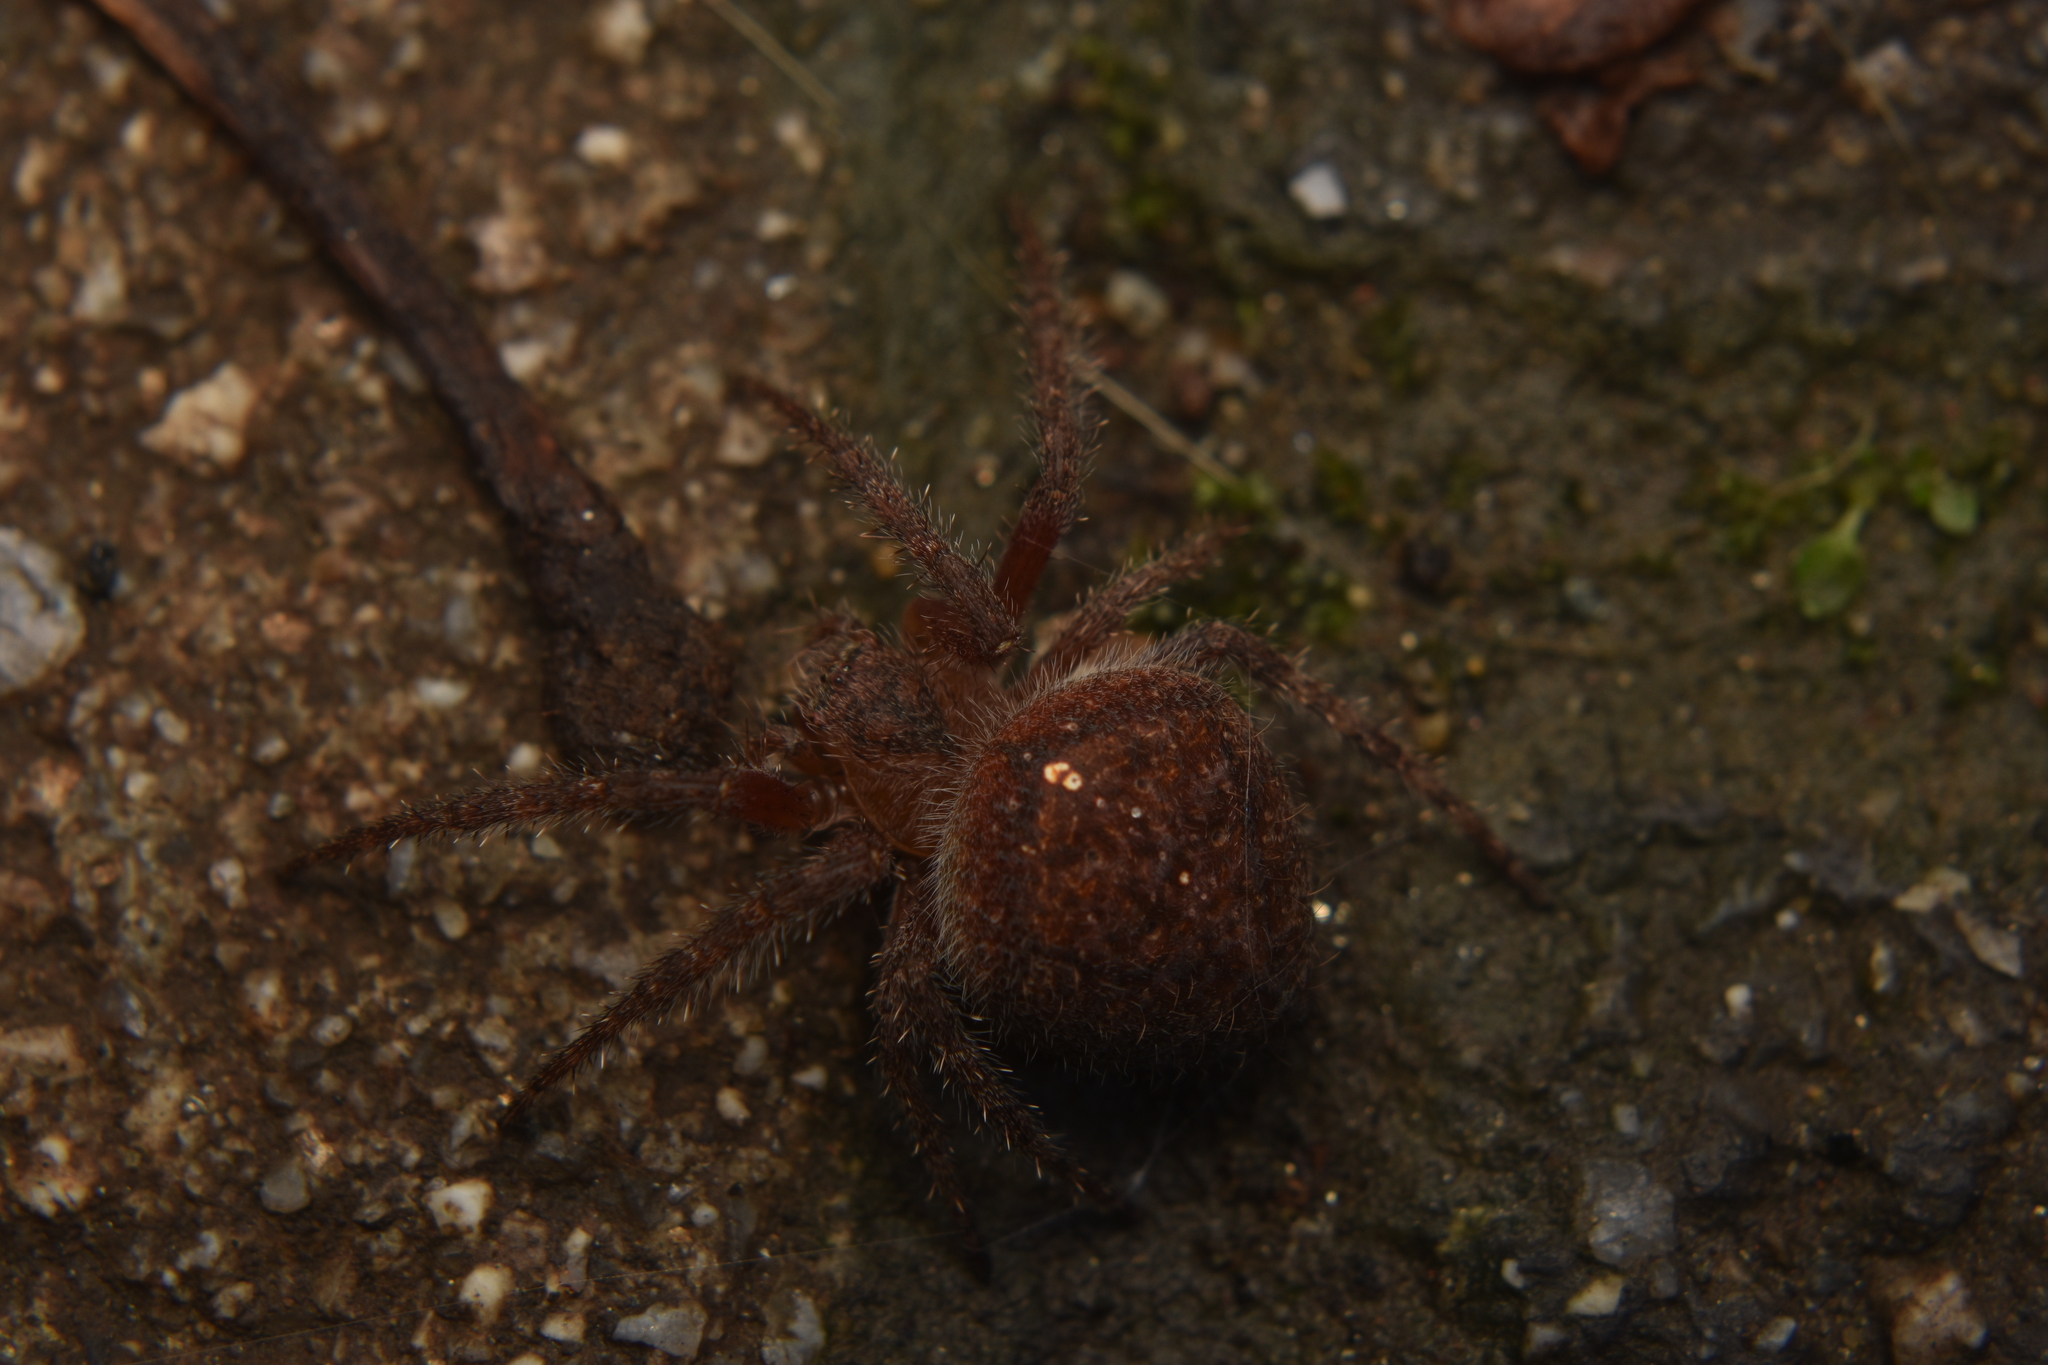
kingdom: Animalia
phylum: Arthropoda
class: Arachnida
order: Araneae
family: Araneidae
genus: Eriophora
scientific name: Eriophora edax
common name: Orb weavers
